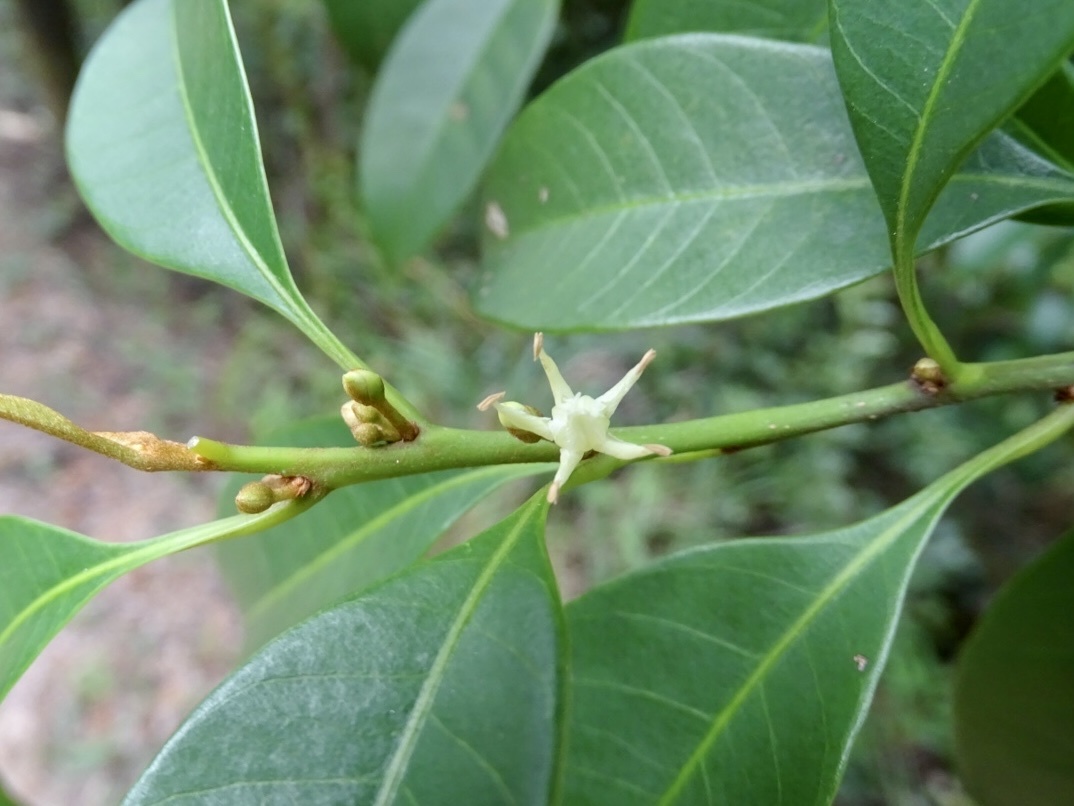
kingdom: Plantae
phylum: Tracheophyta
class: Magnoliopsida
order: Ericales
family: Sapotaceae
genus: Sideroxylon
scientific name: Sideroxylon wightianum
